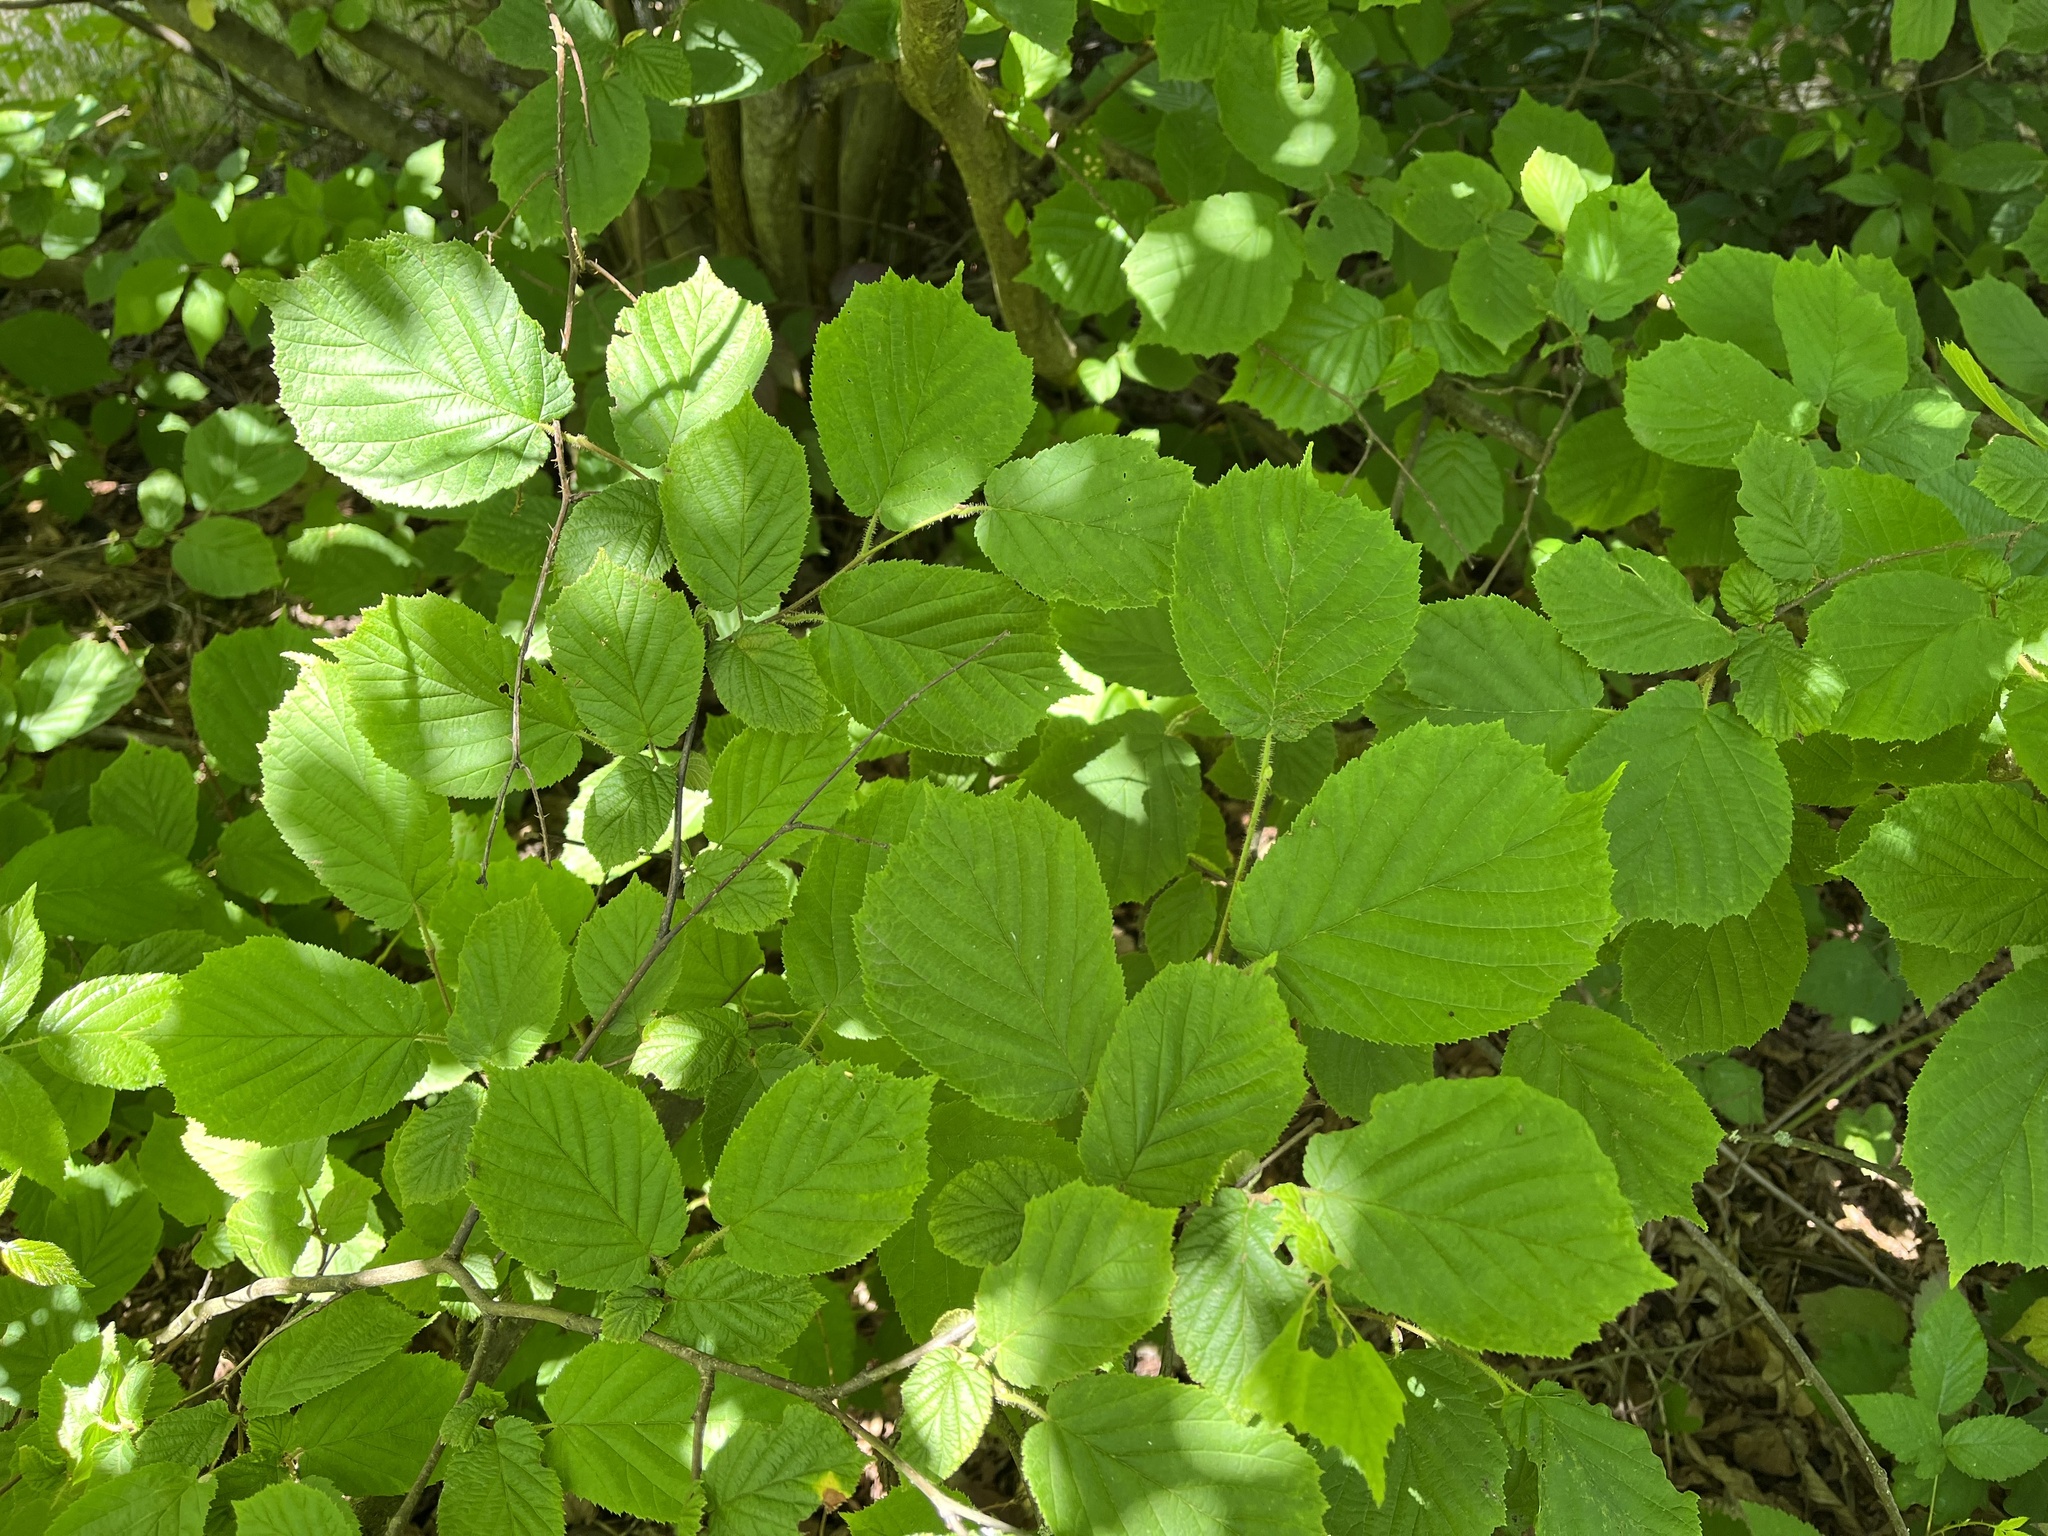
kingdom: Plantae
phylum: Tracheophyta
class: Magnoliopsida
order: Fagales
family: Betulaceae
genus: Corylus
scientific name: Corylus avellana
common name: European hazel
